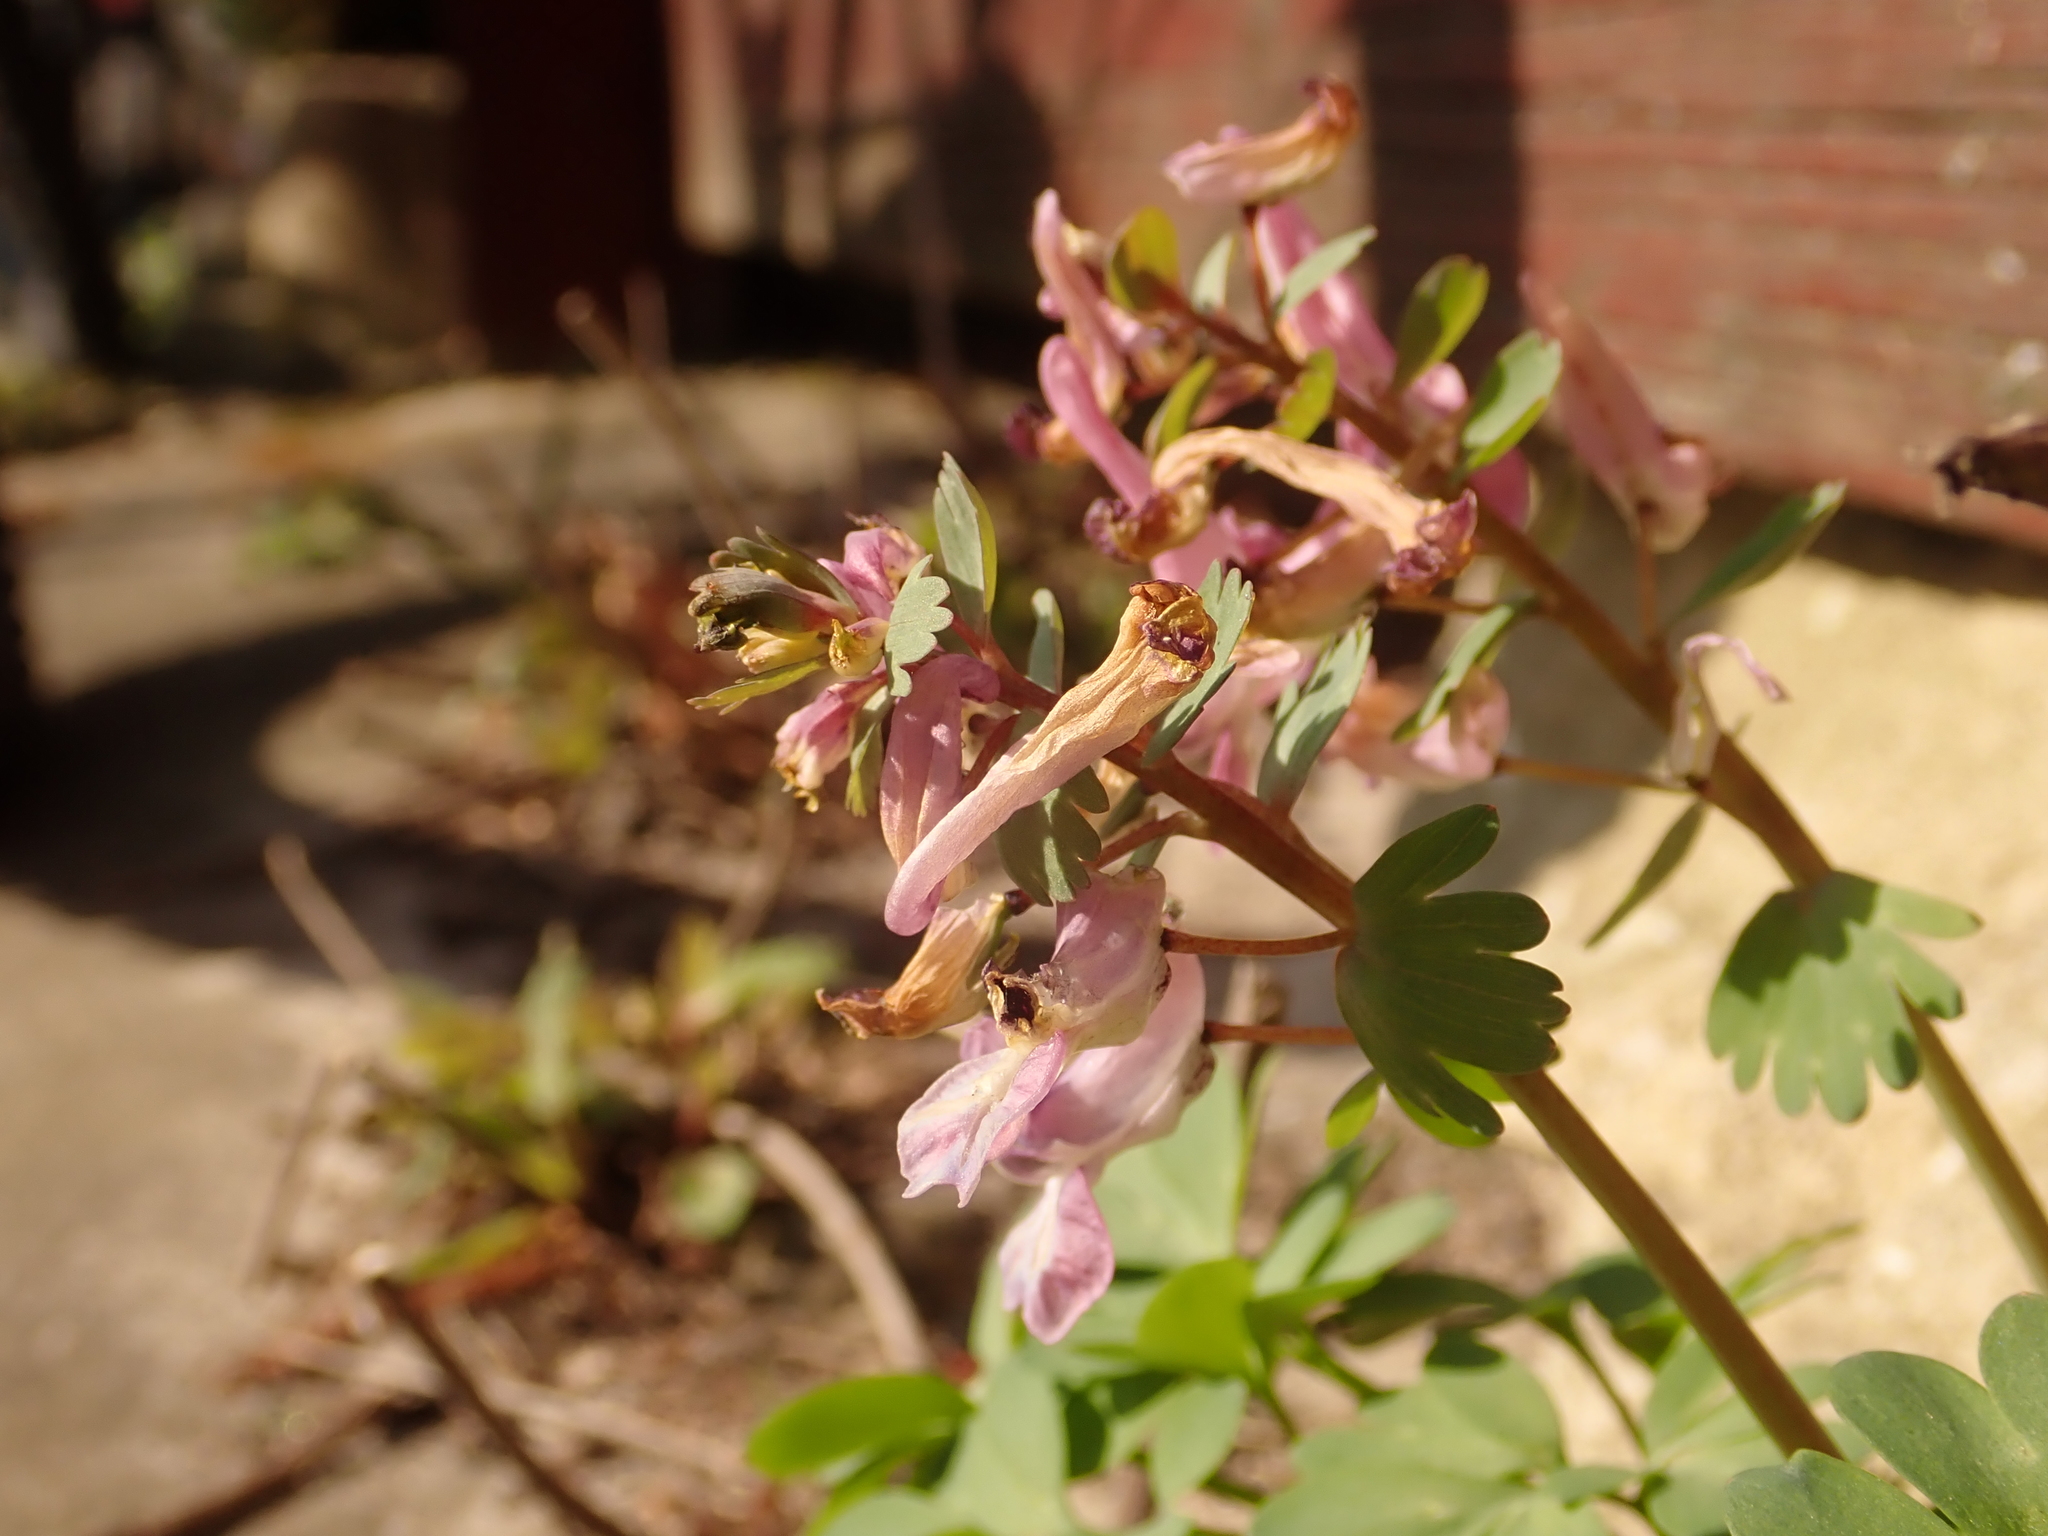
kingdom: Plantae
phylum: Tracheophyta
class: Magnoliopsida
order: Ranunculales
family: Papaveraceae
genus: Corydalis
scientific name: Corydalis solida
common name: Bird-in-a-bush
